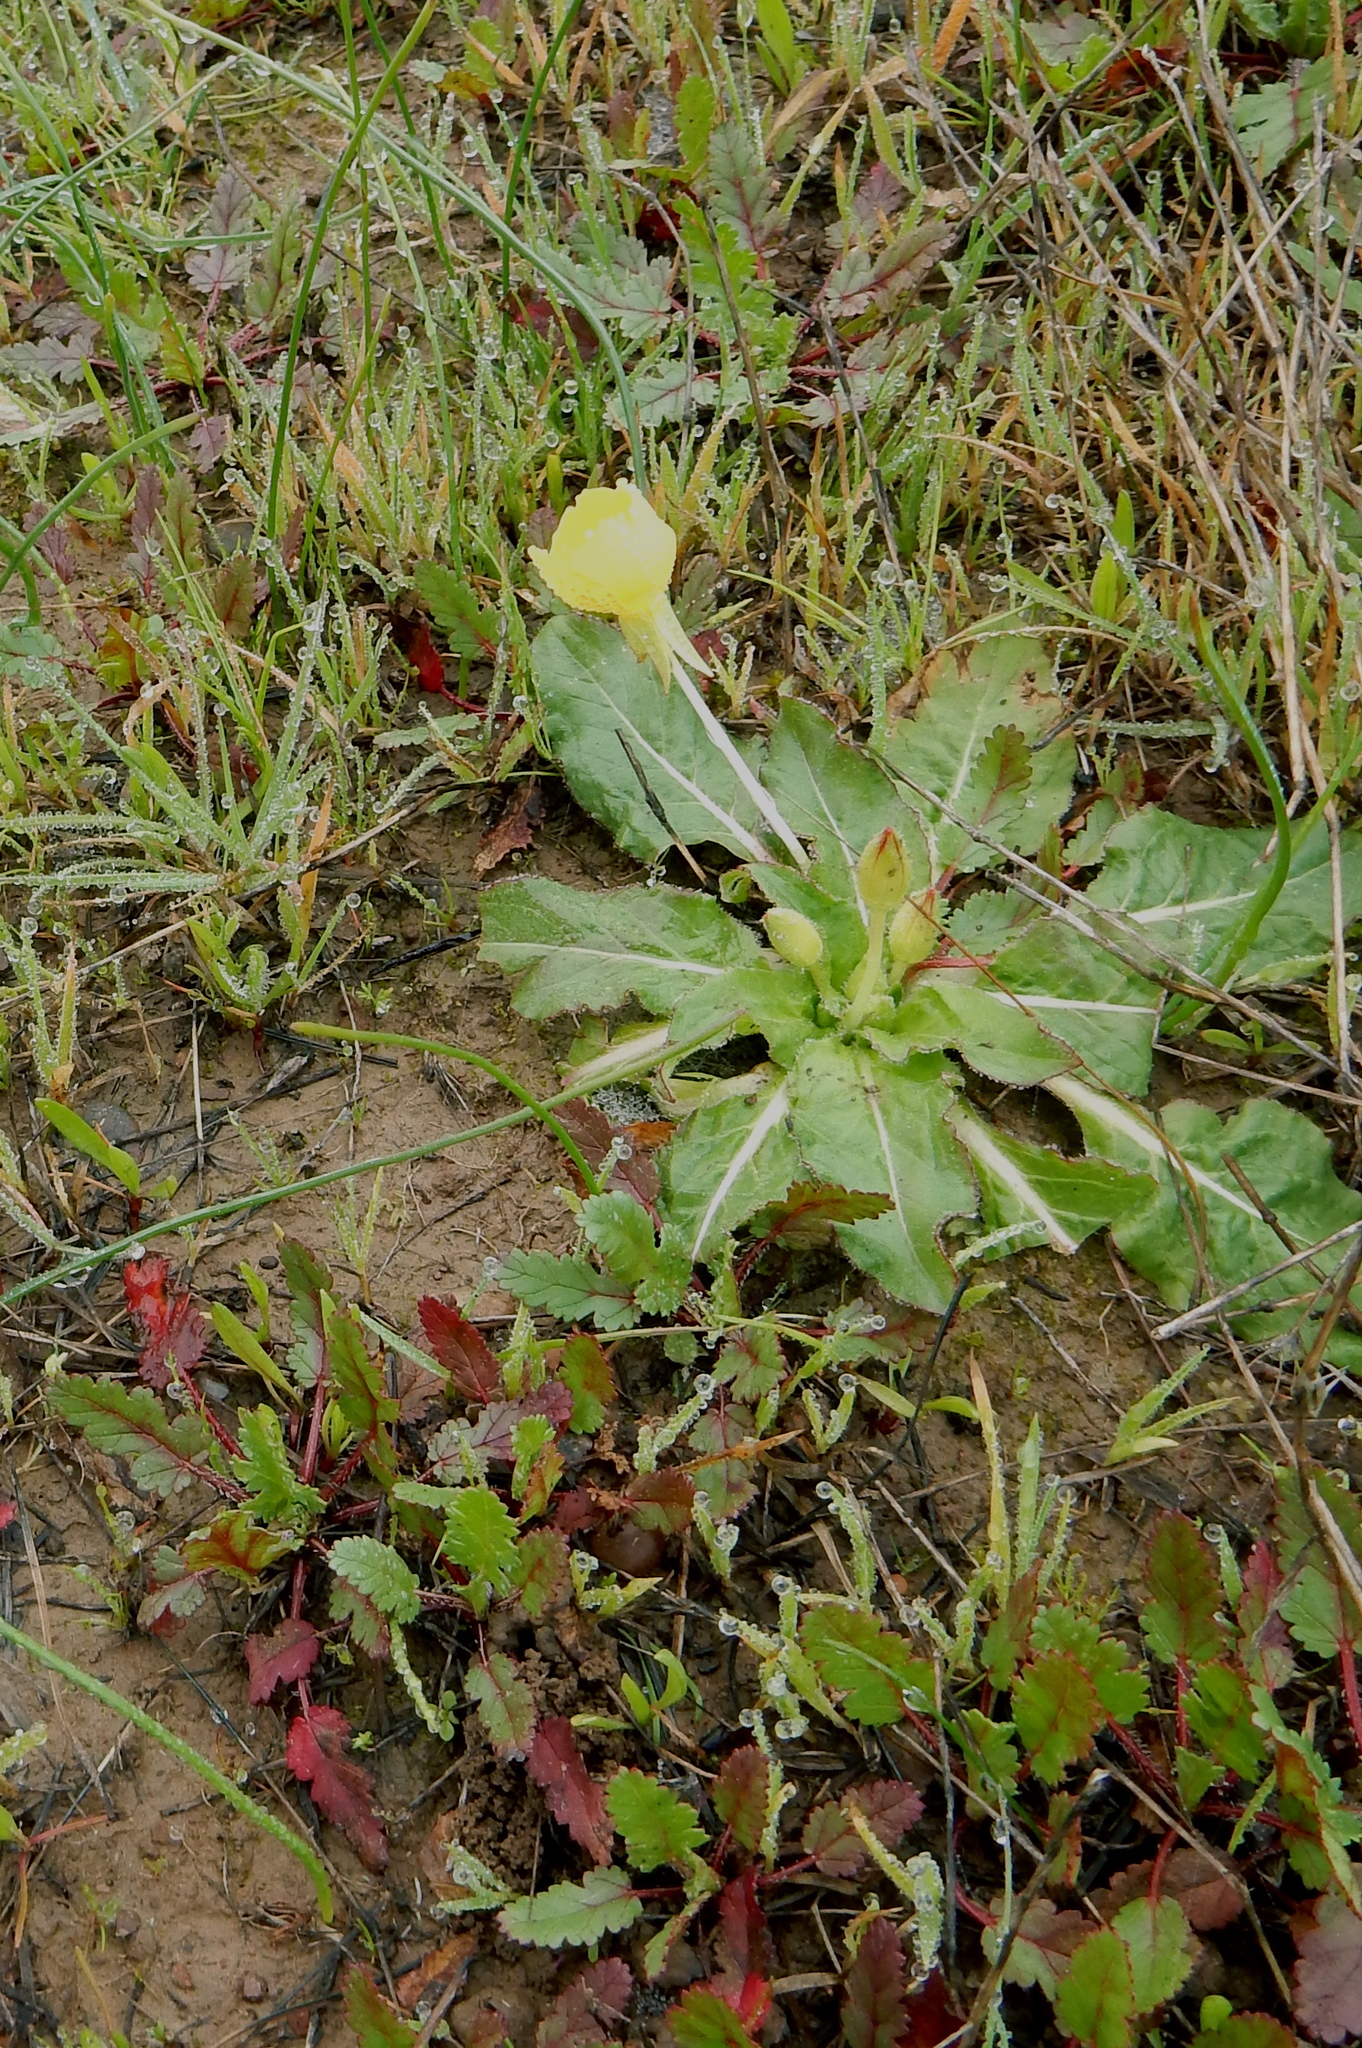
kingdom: Plantae
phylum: Tracheophyta
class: Magnoliopsida
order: Myrtales
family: Onagraceae
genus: Taraxia
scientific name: Taraxia ovata
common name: Goldeneggs
